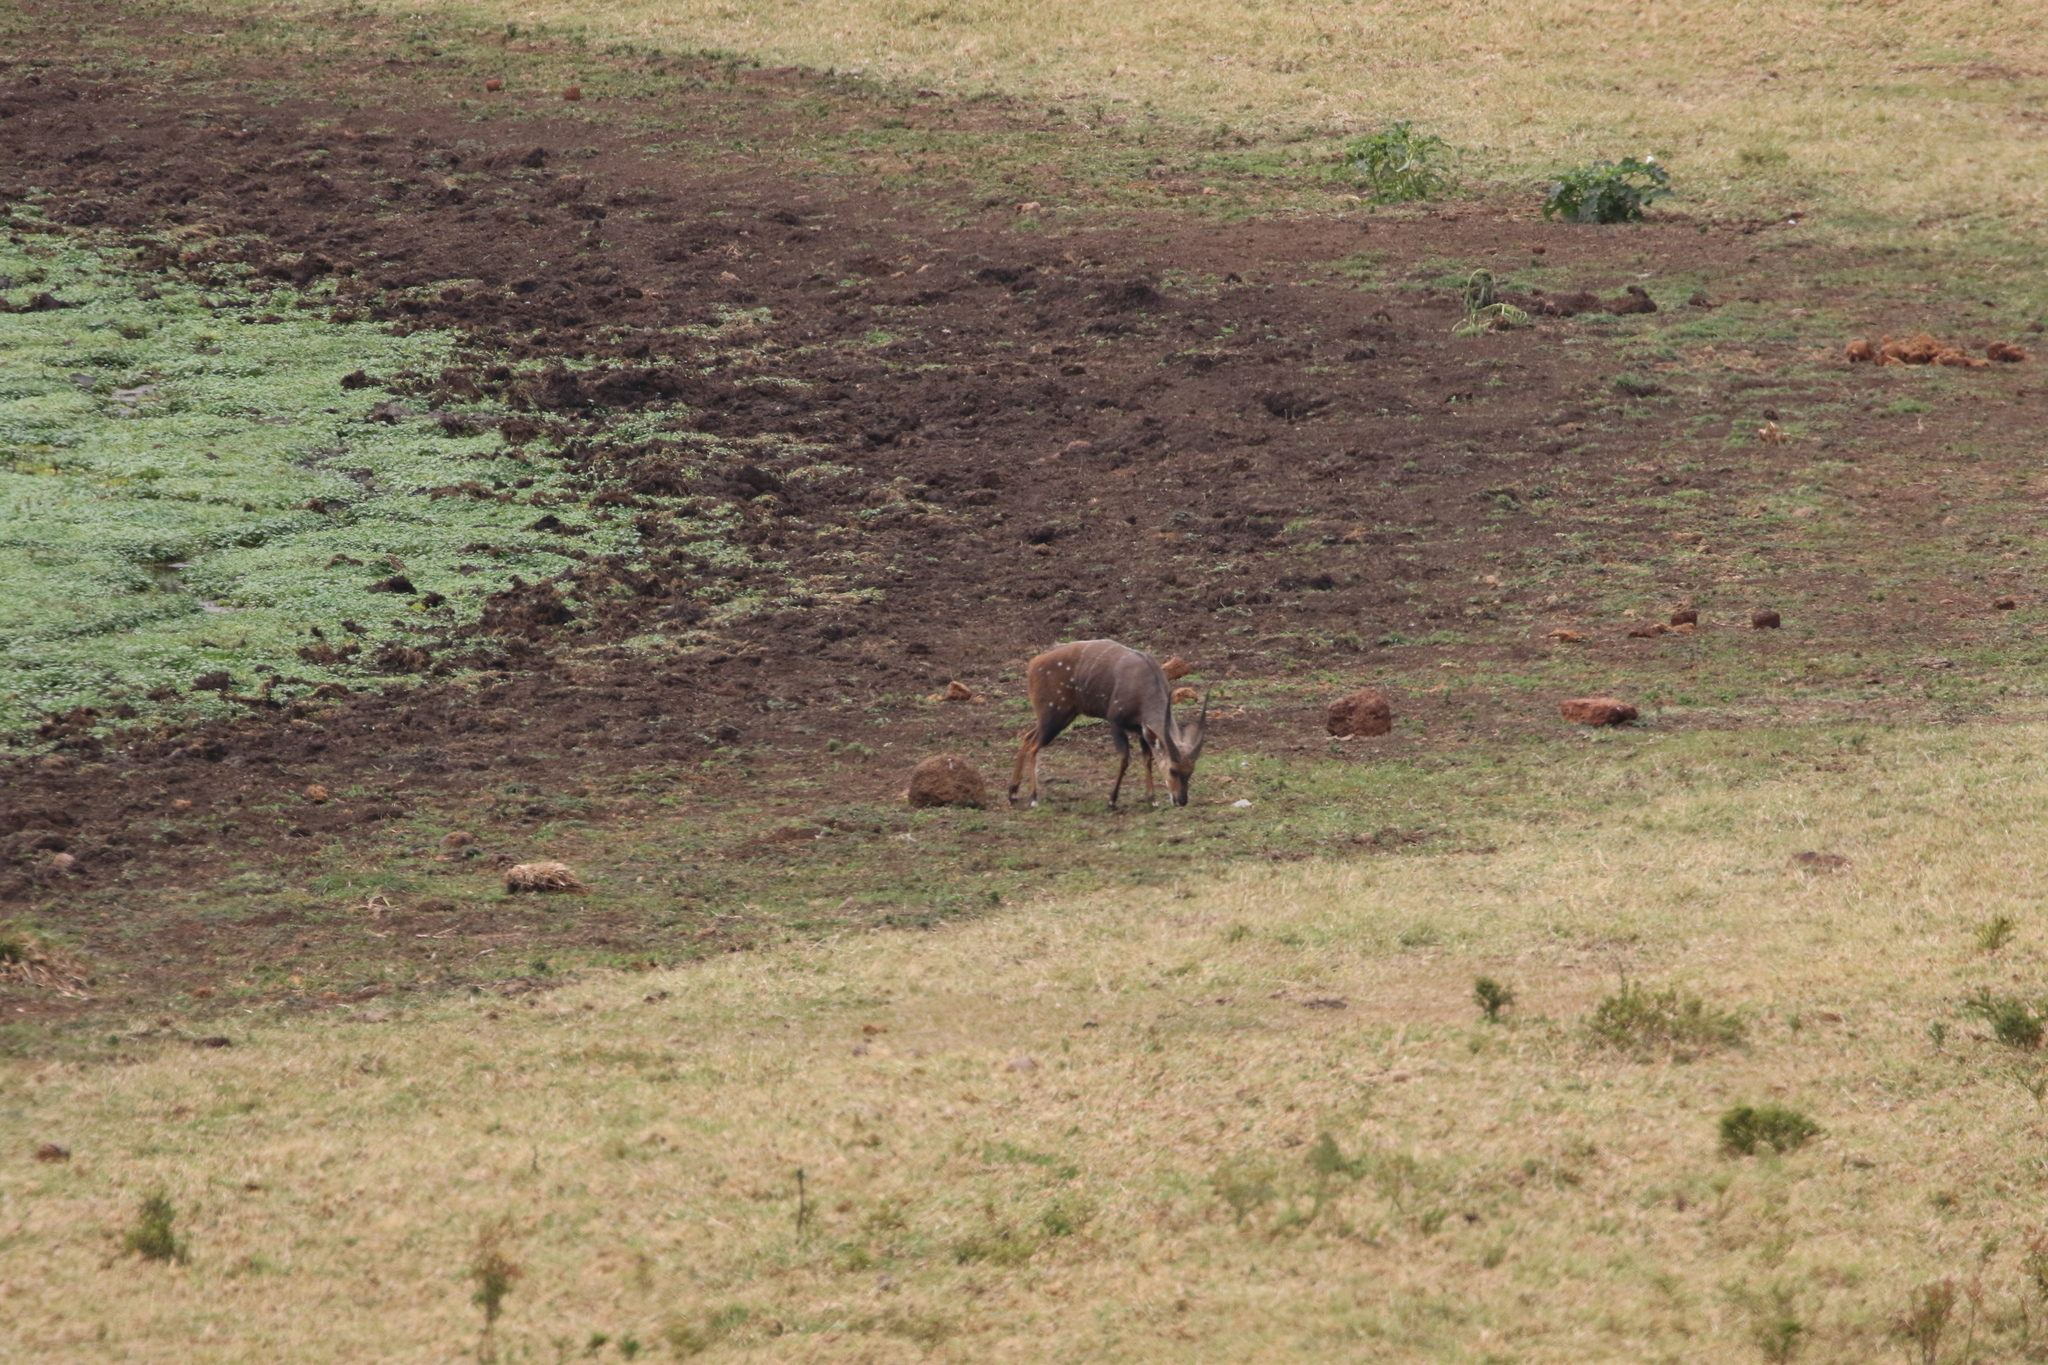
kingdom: Animalia
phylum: Chordata
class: Mammalia
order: Artiodactyla
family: Bovidae
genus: Tragelaphus
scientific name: Tragelaphus scriptus
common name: Bushbuck
